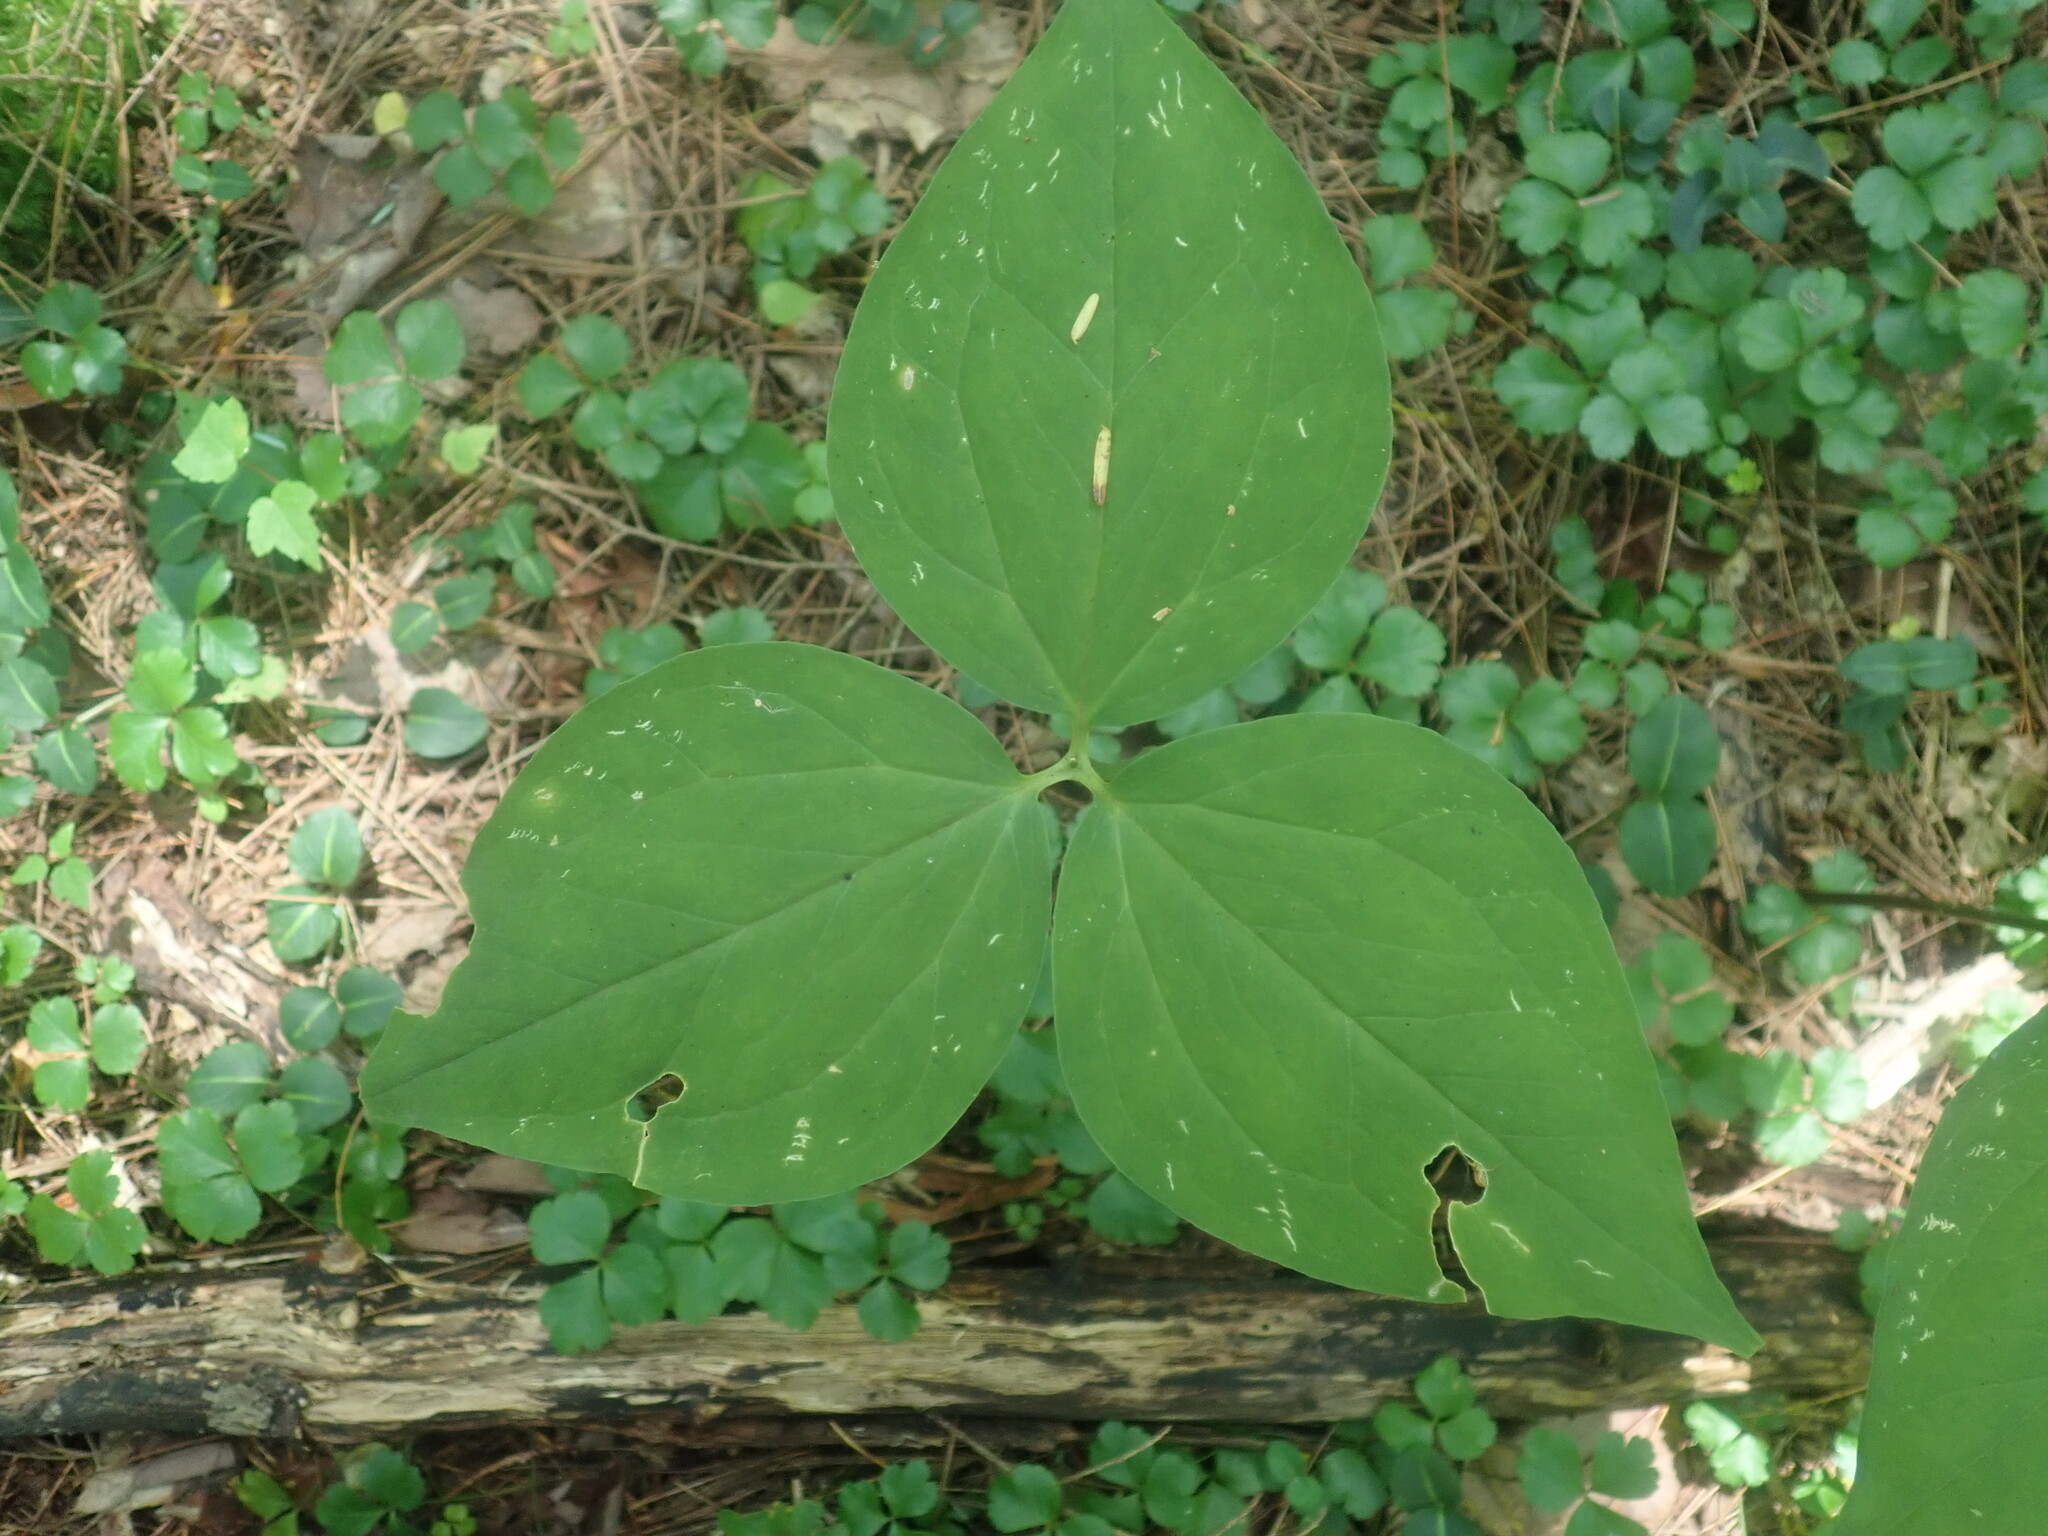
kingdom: Plantae
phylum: Tracheophyta
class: Liliopsida
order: Liliales
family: Melanthiaceae
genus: Trillium
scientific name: Trillium undulatum
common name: Paint trillium
